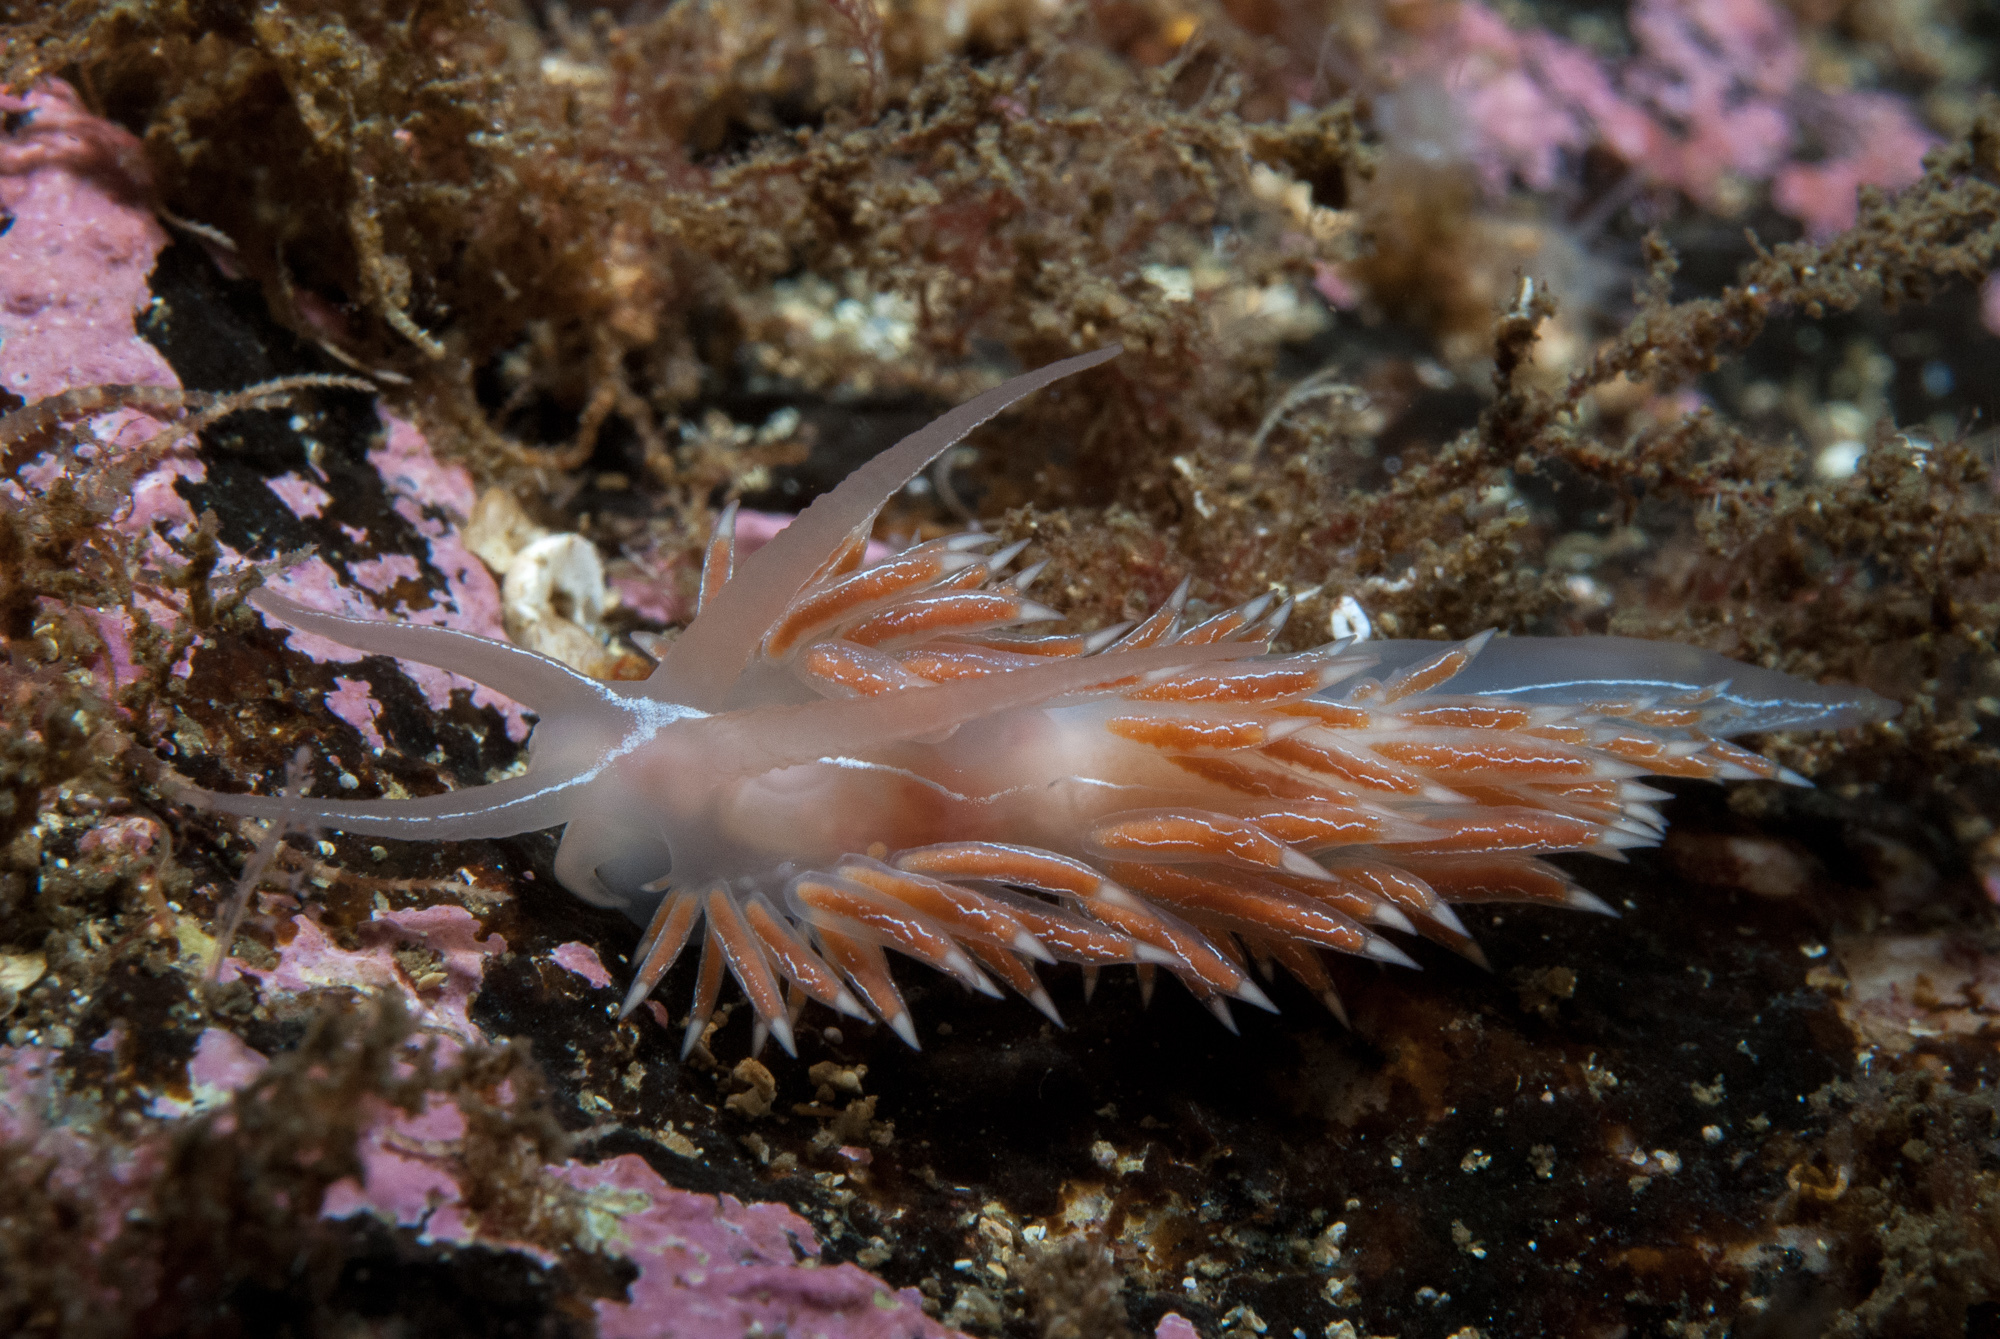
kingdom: Animalia
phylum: Mollusca
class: Gastropoda
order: Nudibranchia
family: Coryphellidae
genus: Coryphella
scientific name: Coryphella chriskaugei
